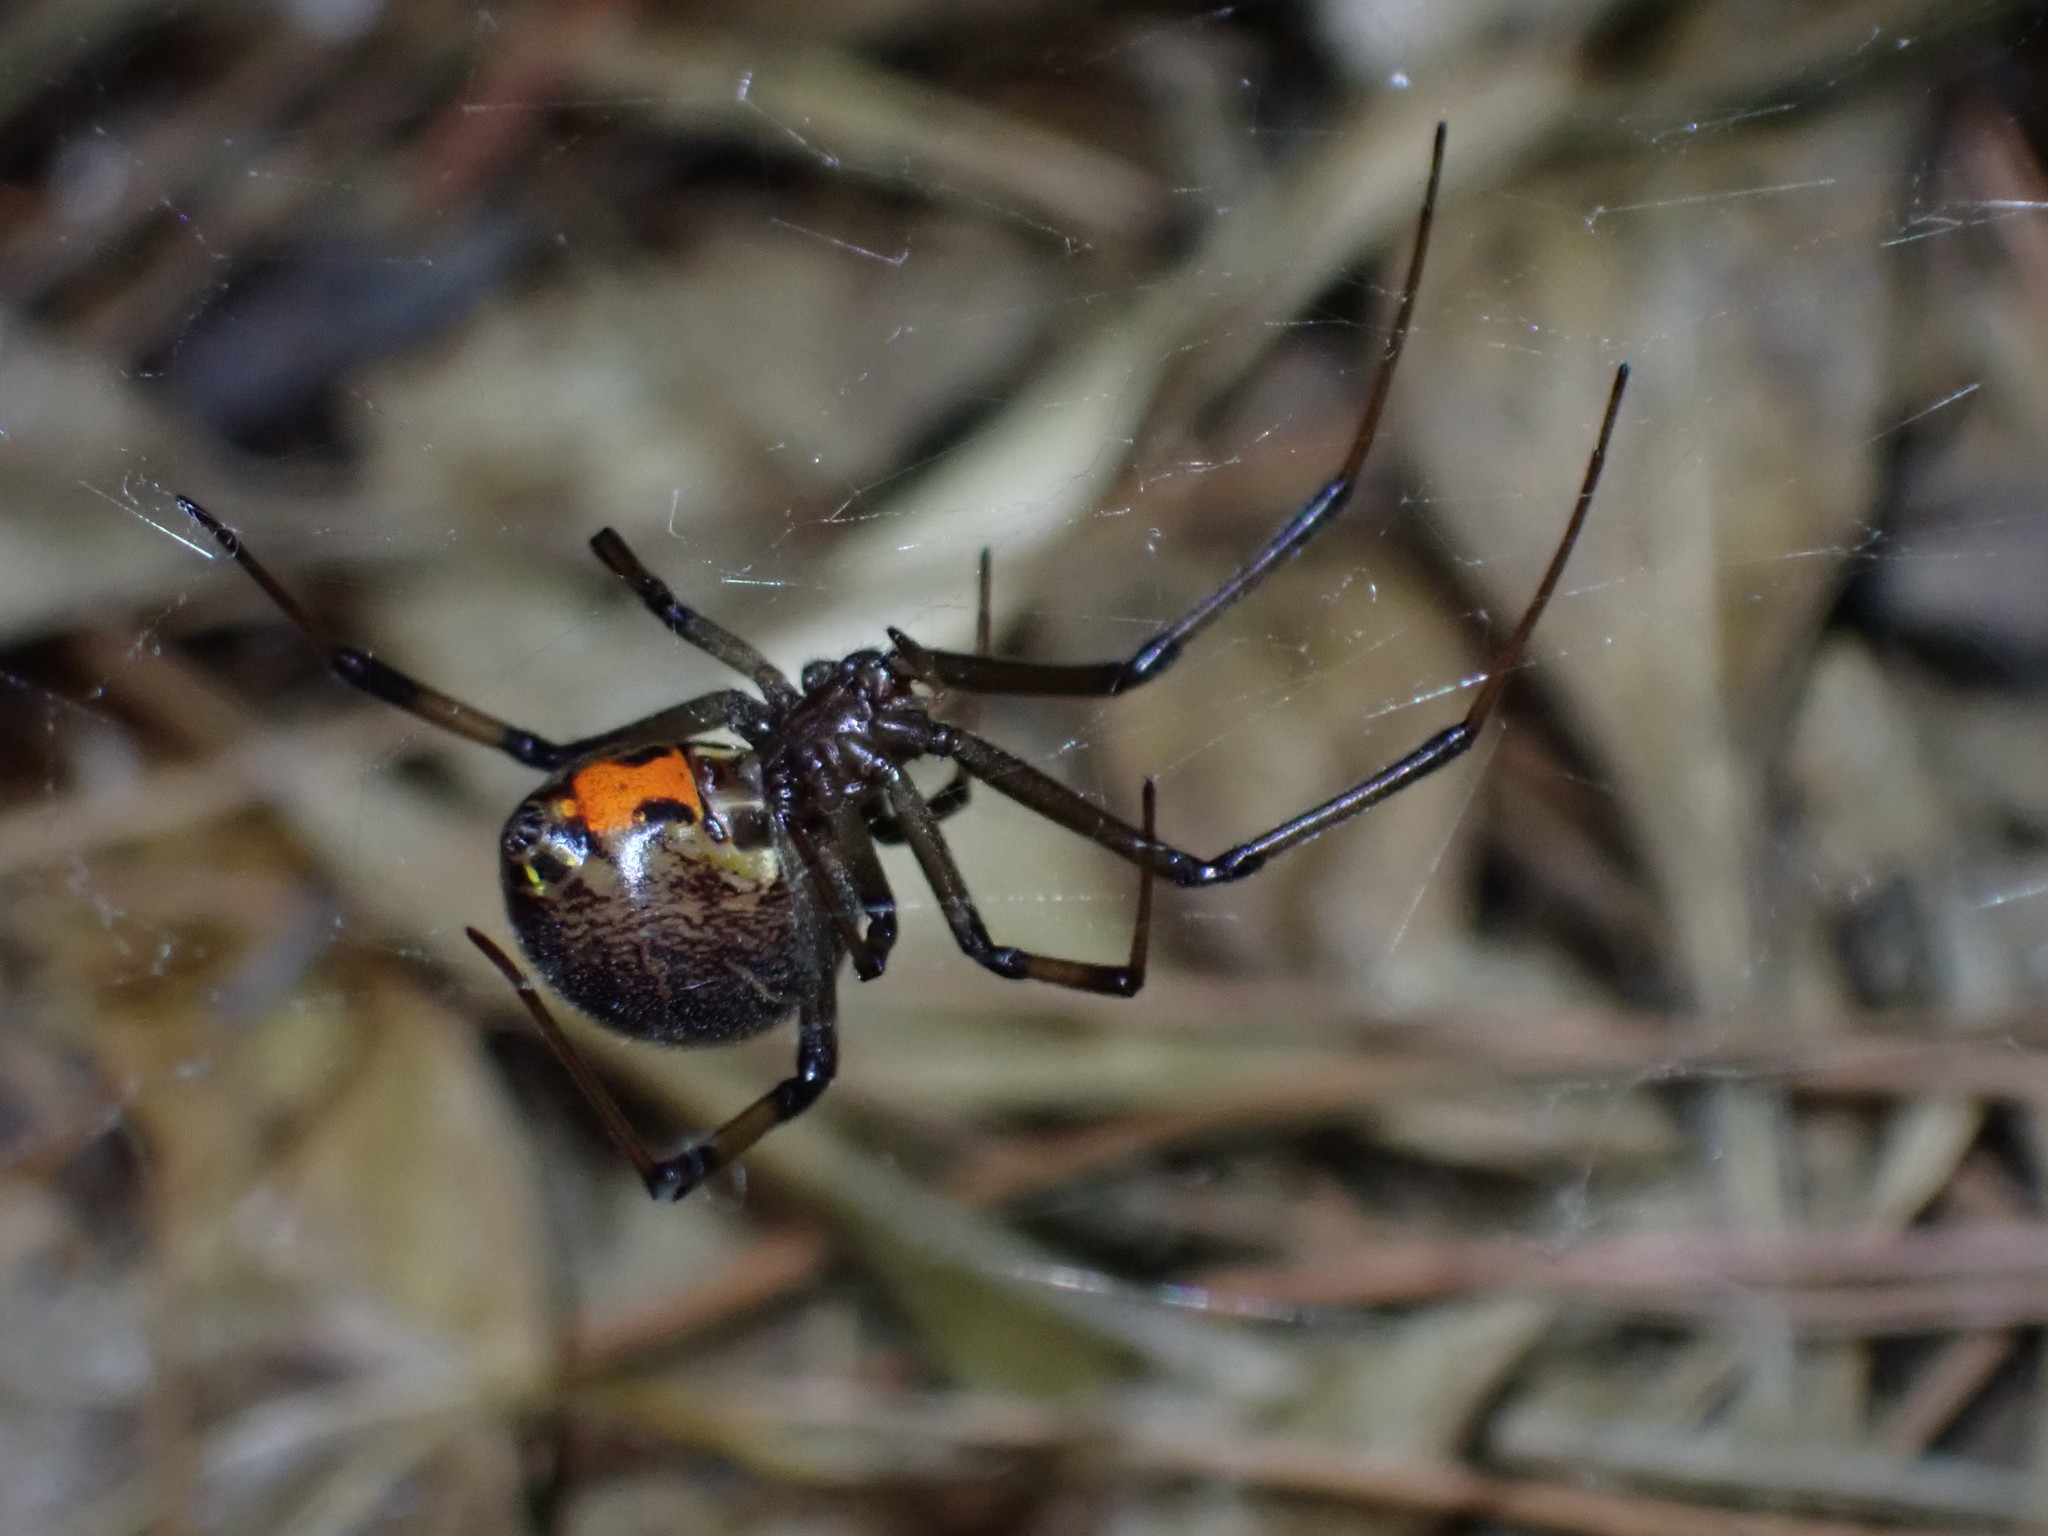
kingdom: Animalia
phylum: Arthropoda
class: Arachnida
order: Araneae
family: Theridiidae
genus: Latrodectus
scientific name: Latrodectus geometricus
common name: Brown widow spider
